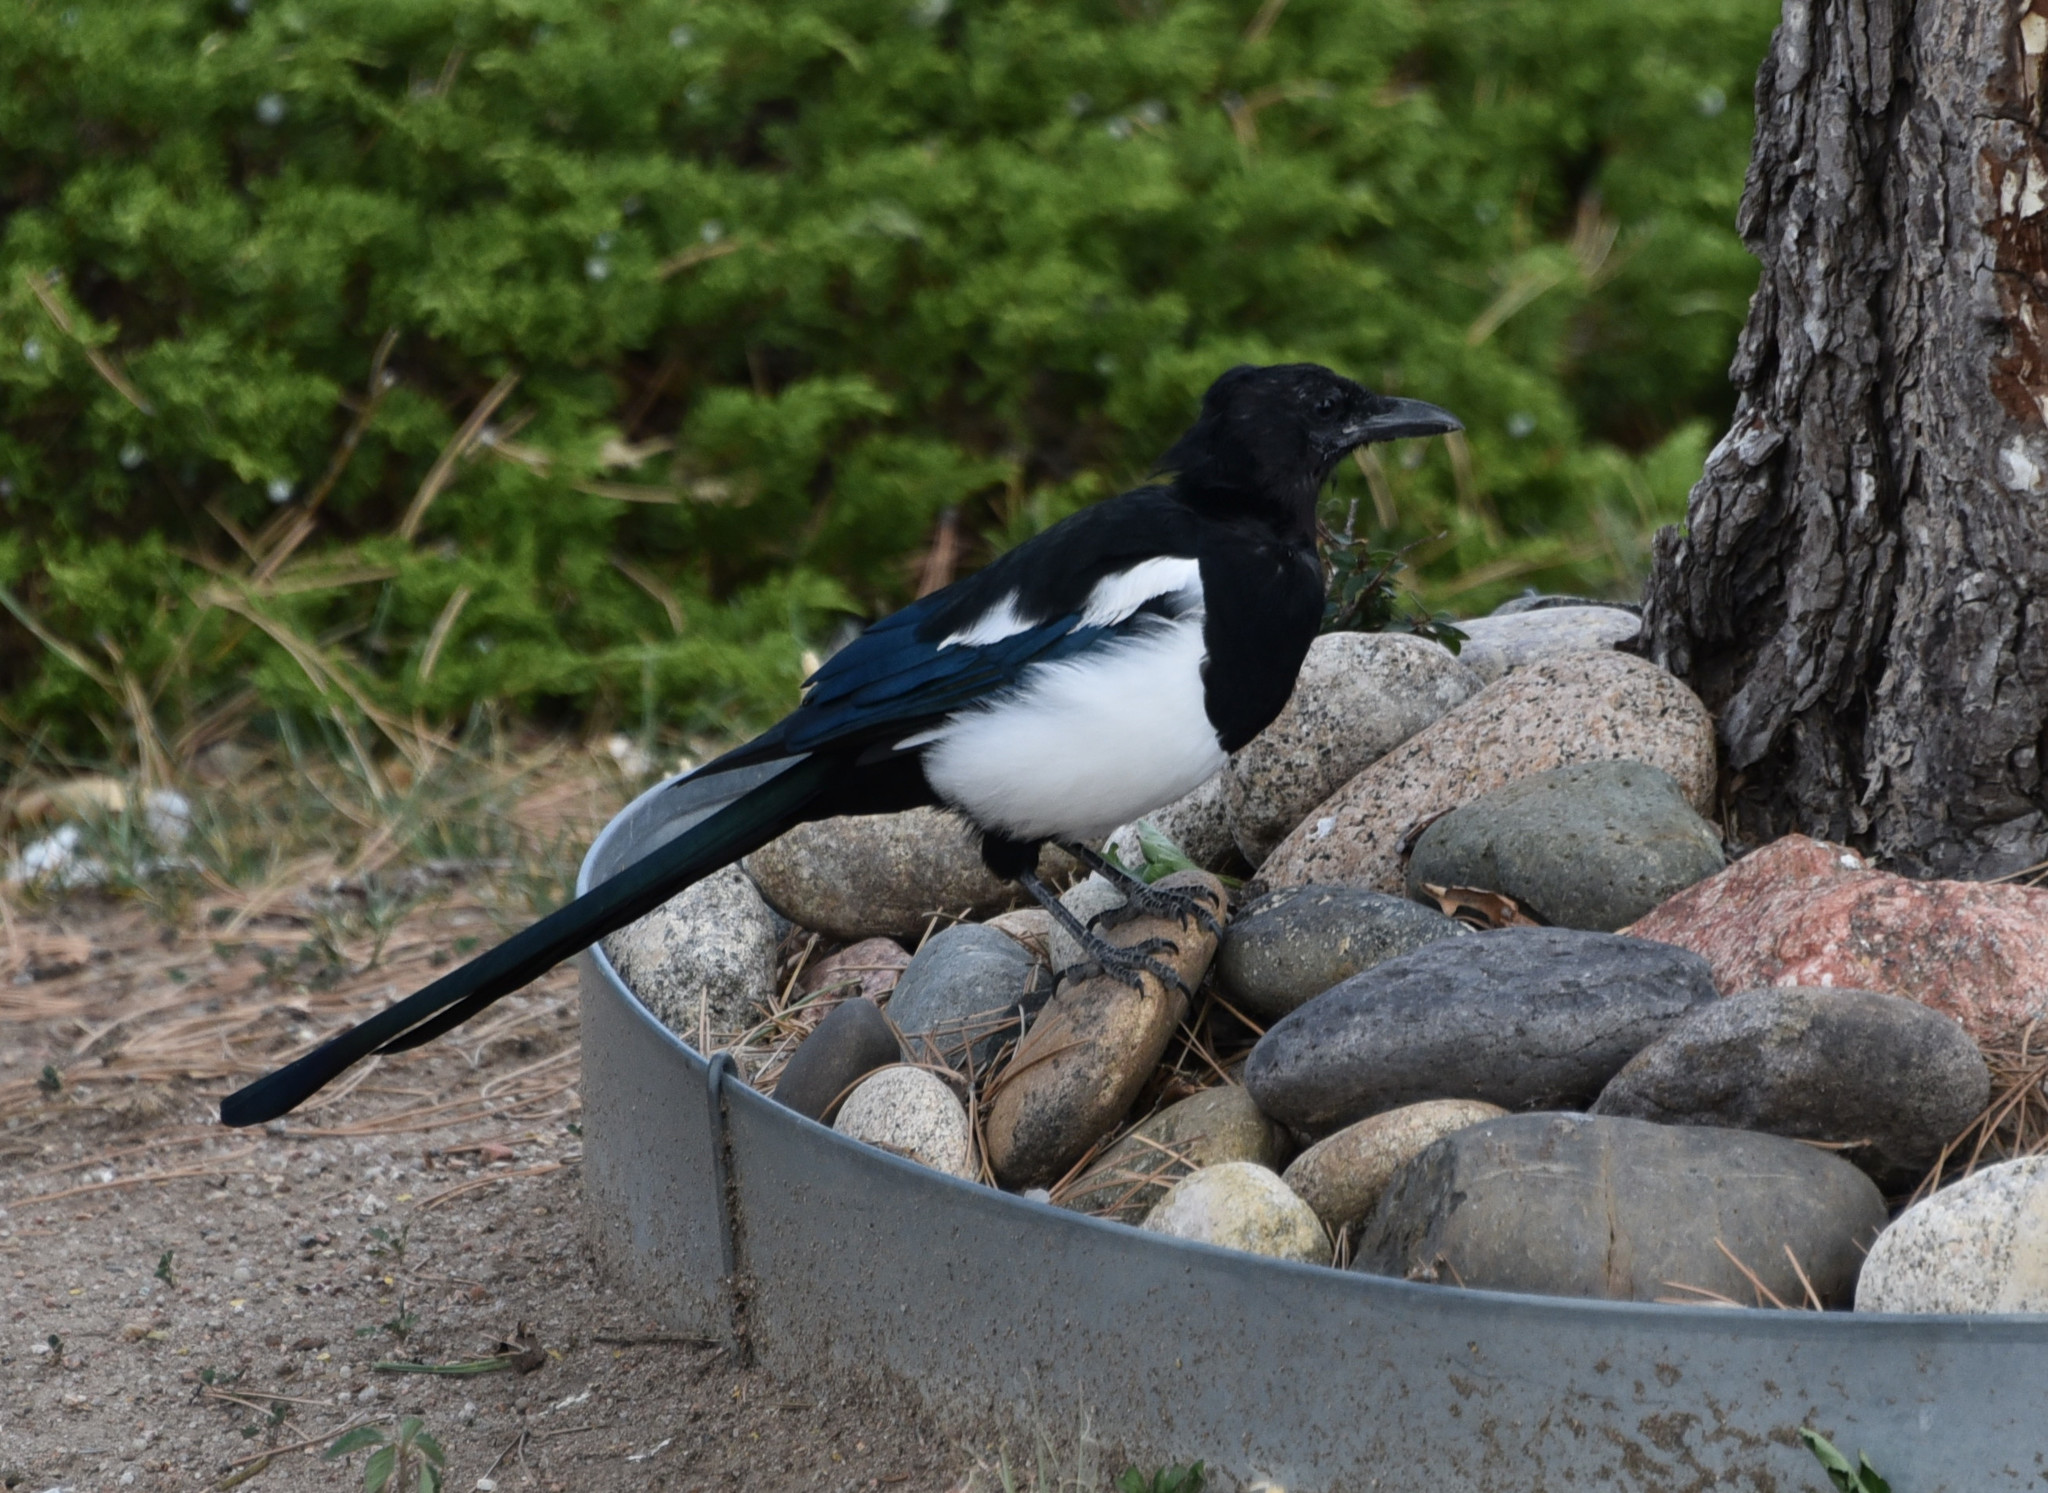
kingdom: Animalia
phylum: Chordata
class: Aves
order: Passeriformes
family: Corvidae
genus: Pica
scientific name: Pica hudsonia
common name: Black-billed magpie
